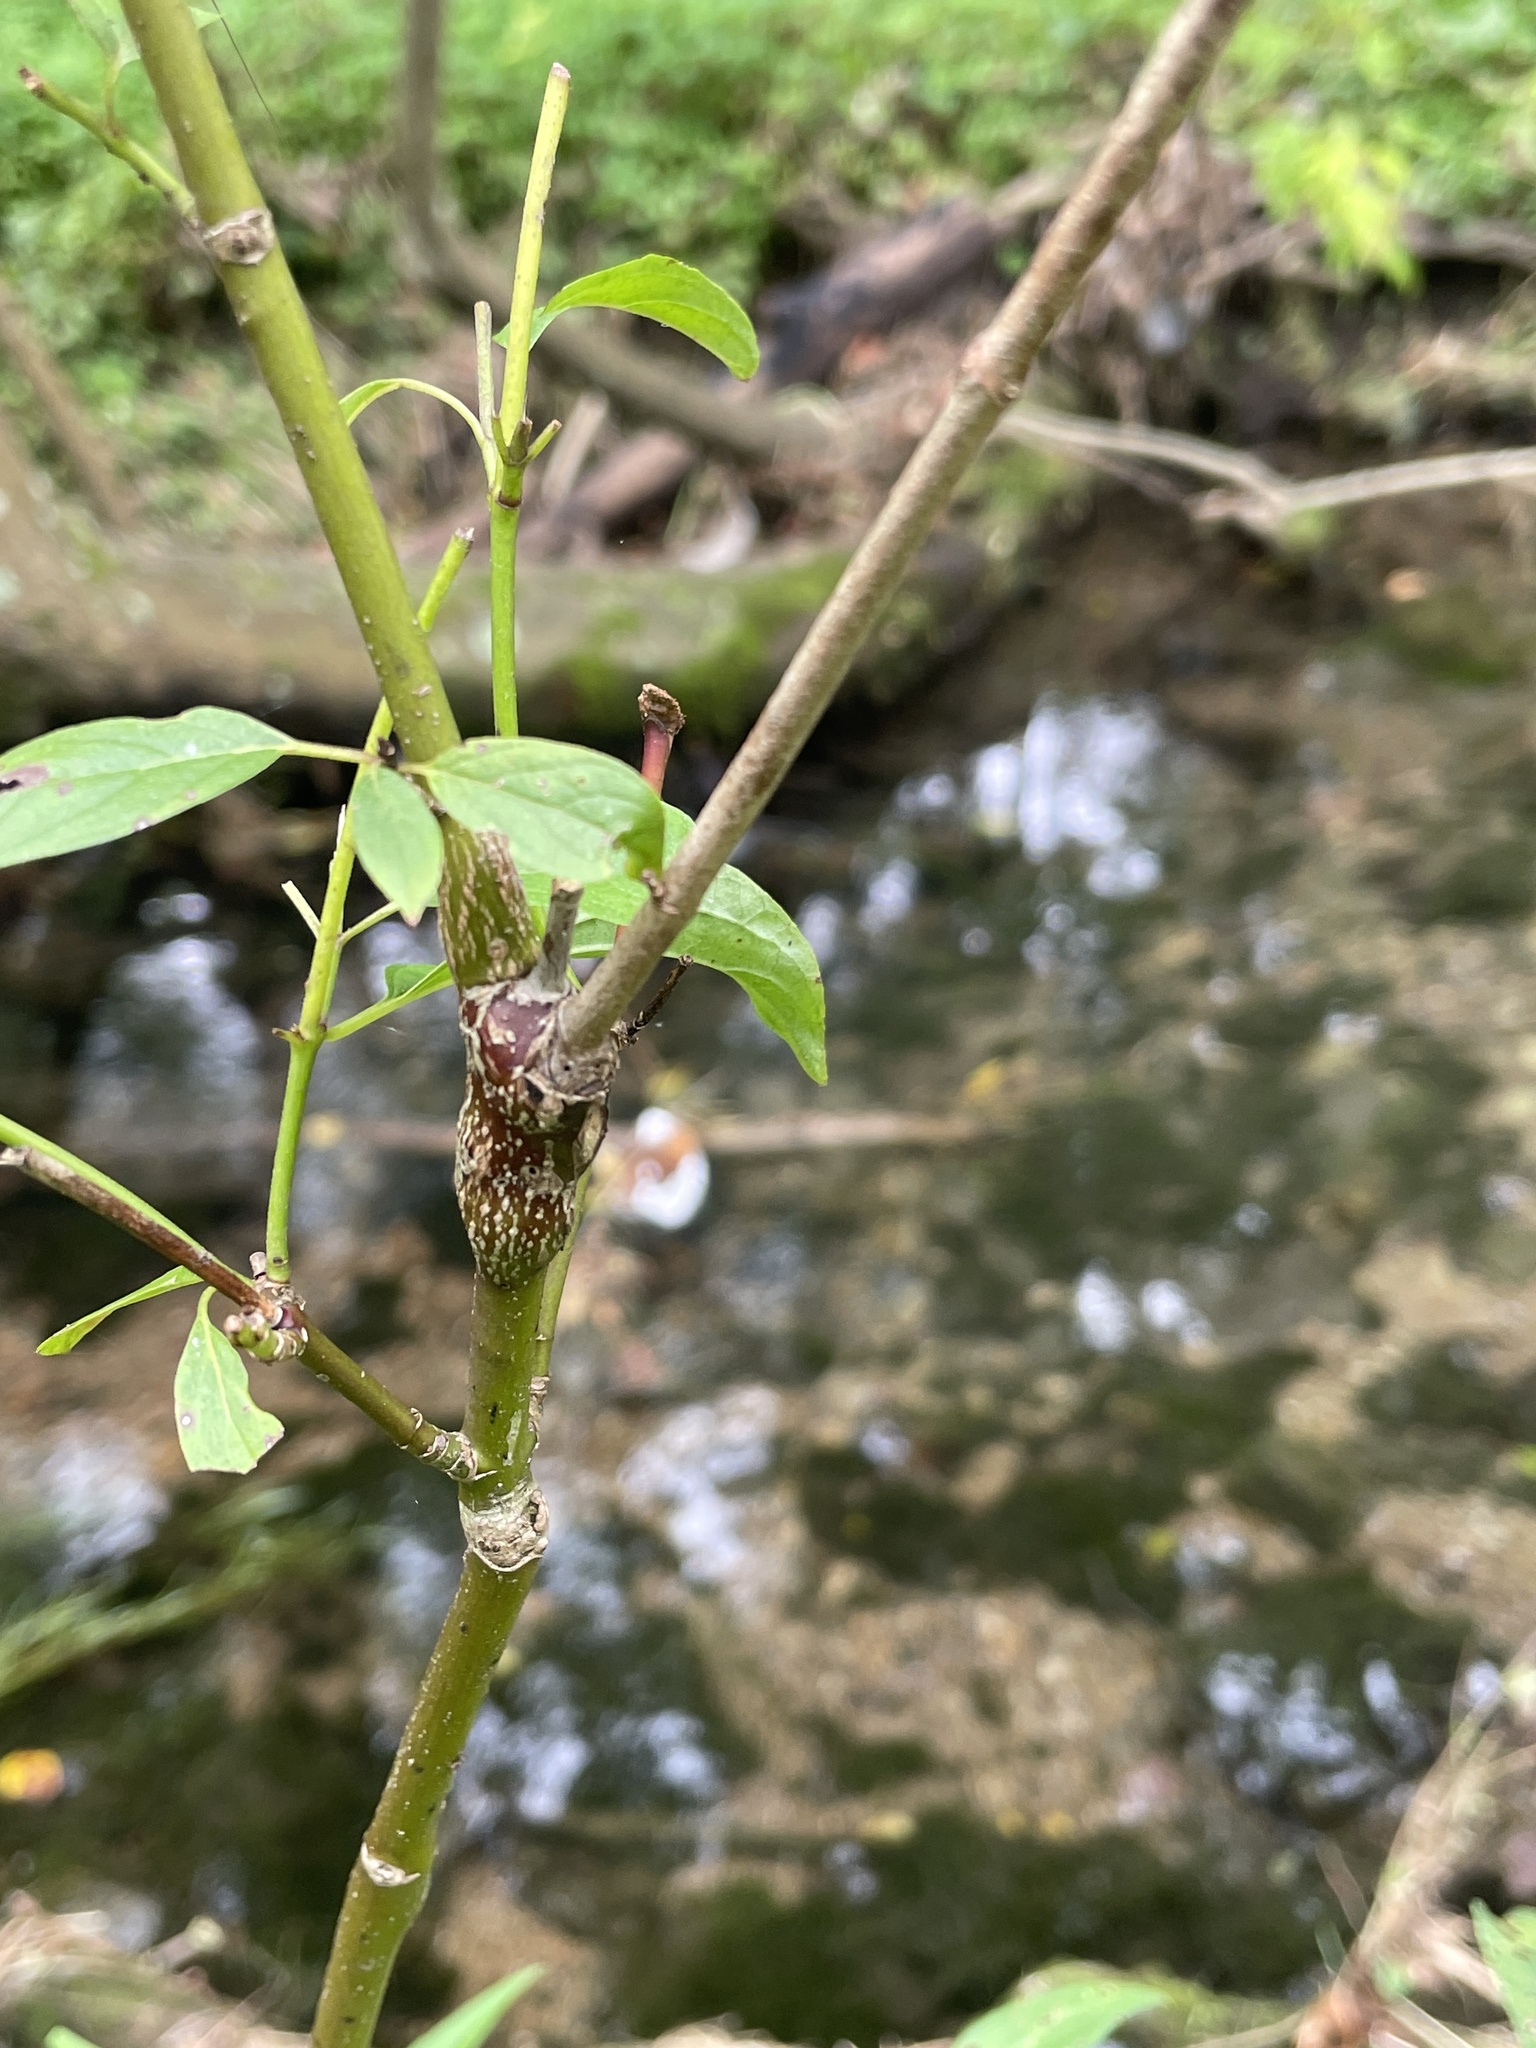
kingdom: Animalia
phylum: Arthropoda
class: Insecta
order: Diptera
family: Cecidomyiidae
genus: Neolasioptera
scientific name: Neolasioptera cornicola
